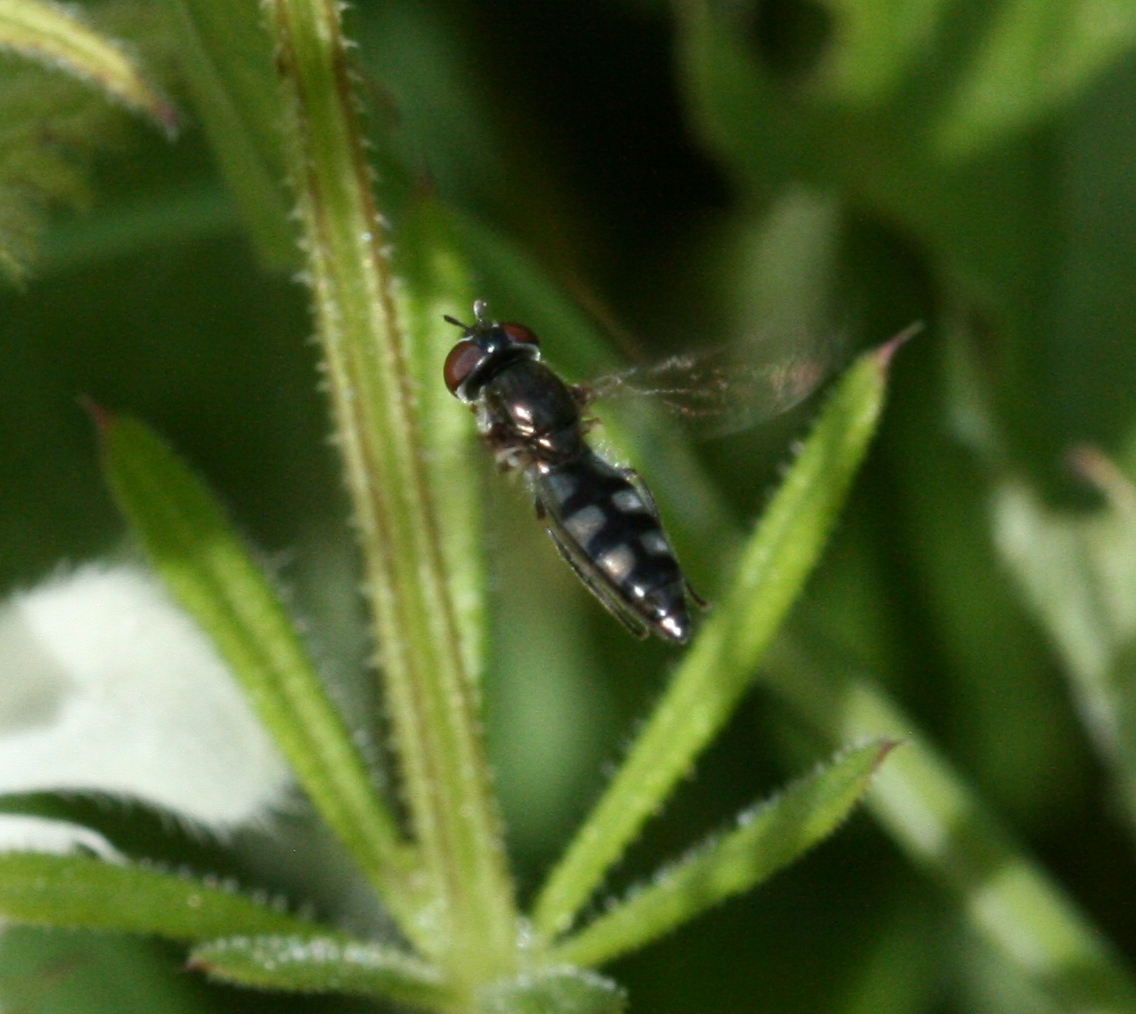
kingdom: Animalia
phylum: Arthropoda
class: Insecta
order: Diptera
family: Syrphidae
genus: Platycheirus
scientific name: Platycheirus albimanus
